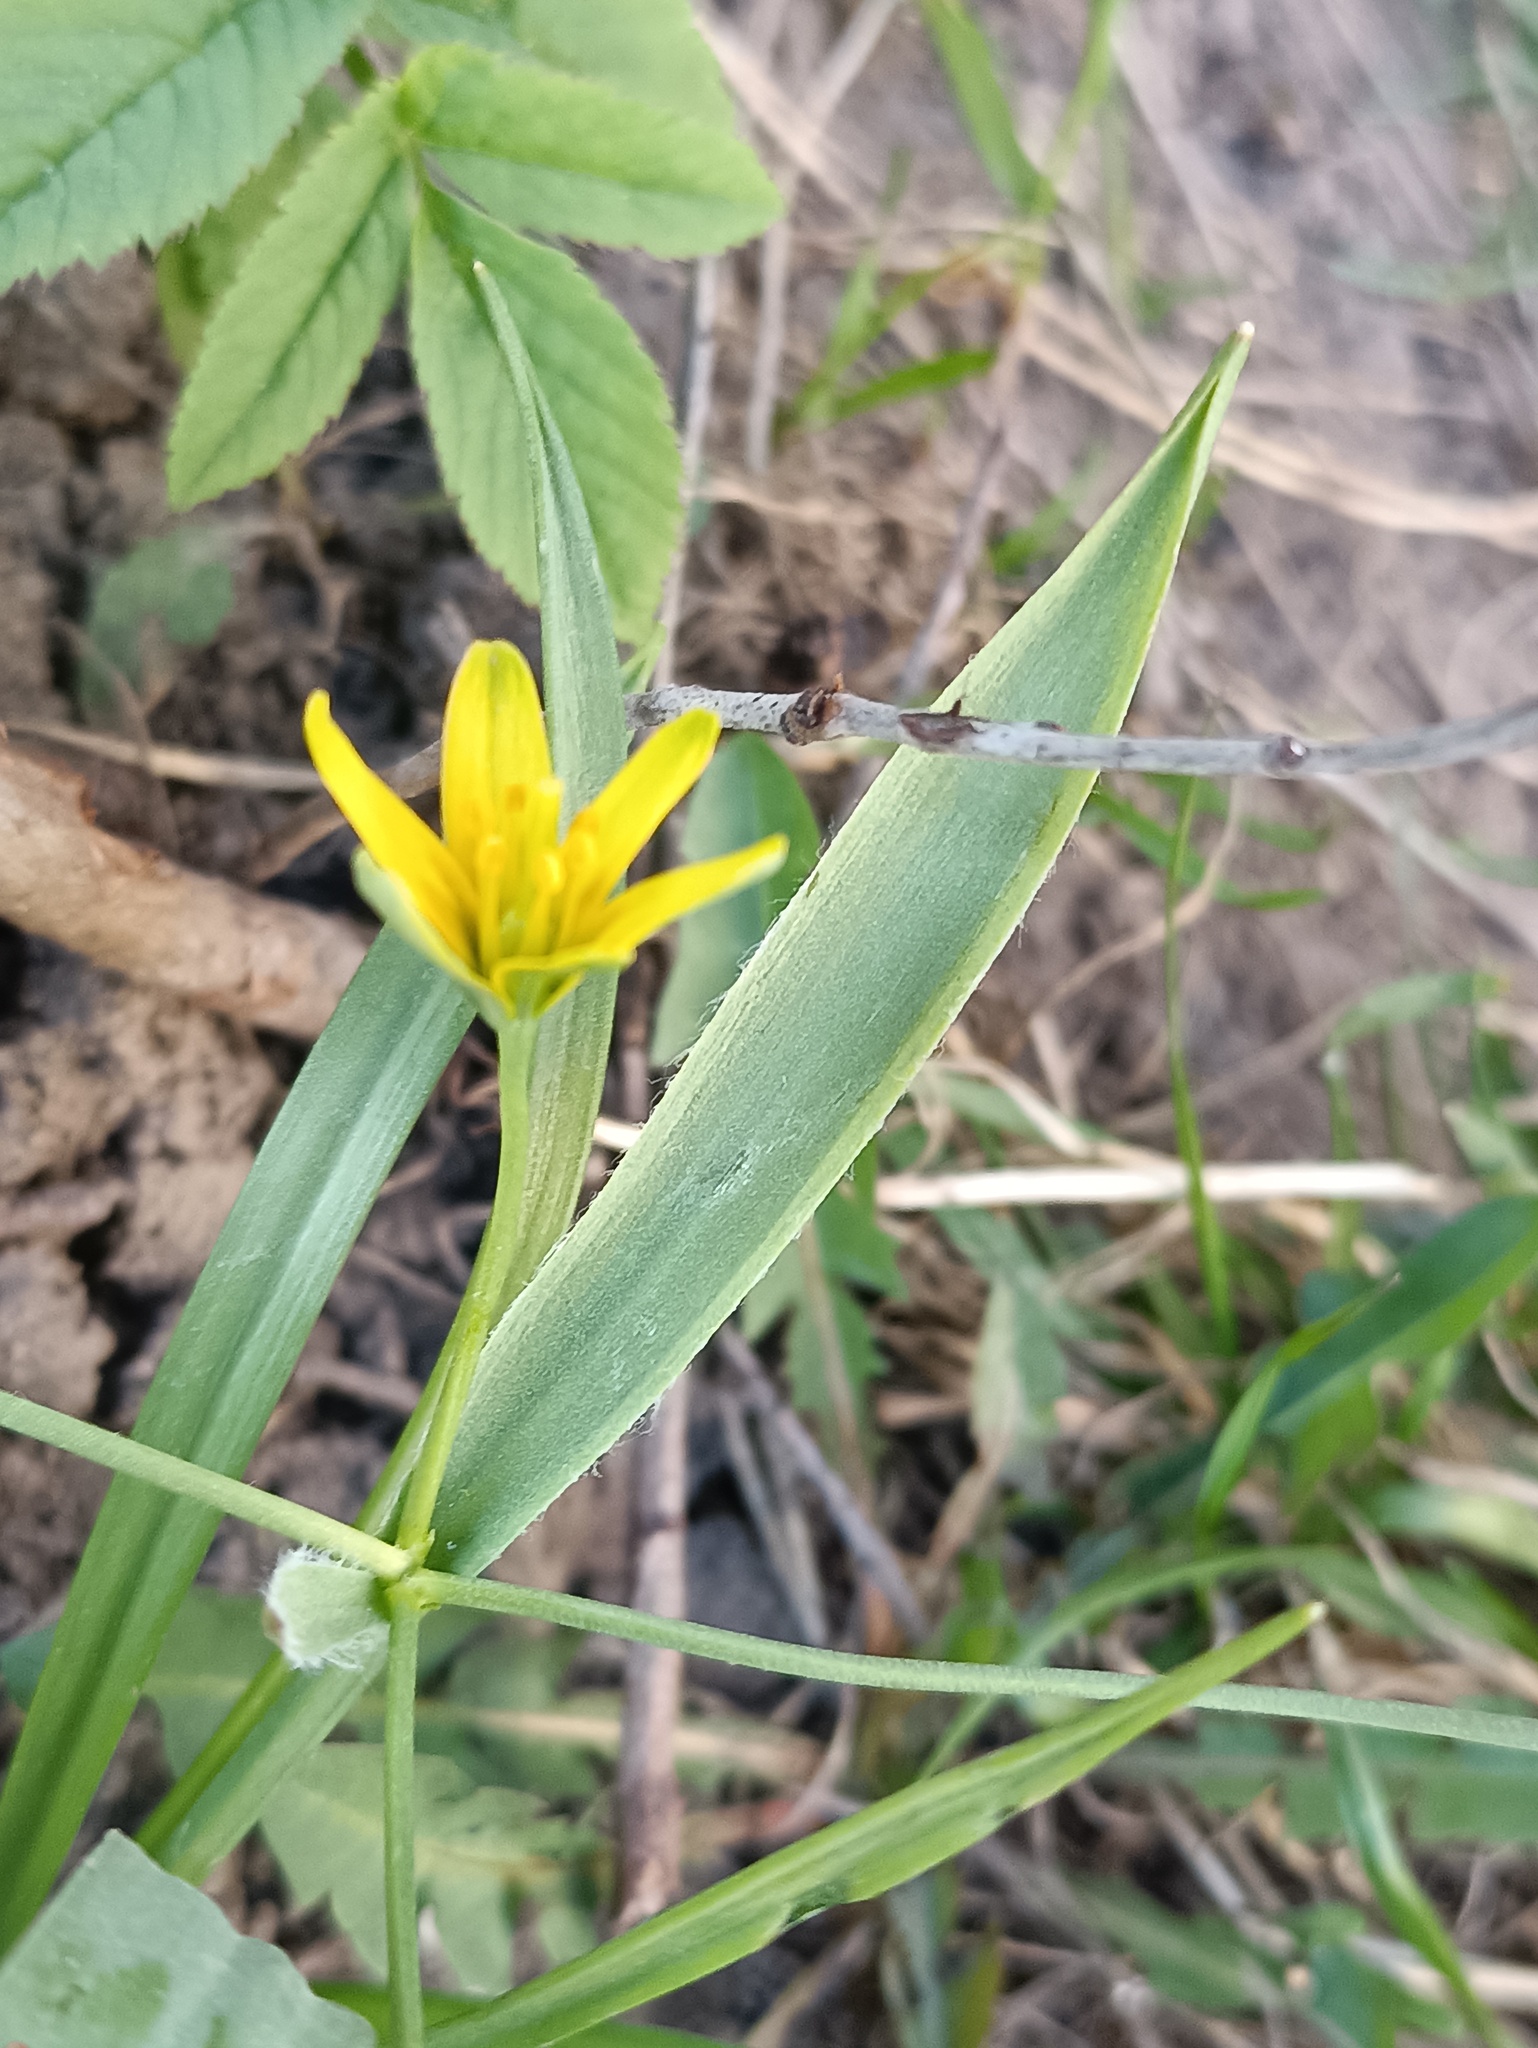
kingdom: Plantae
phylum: Tracheophyta
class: Liliopsida
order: Liliales
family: Liliaceae
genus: Gagea
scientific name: Gagea lutea
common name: Yellow star-of-bethlehem
